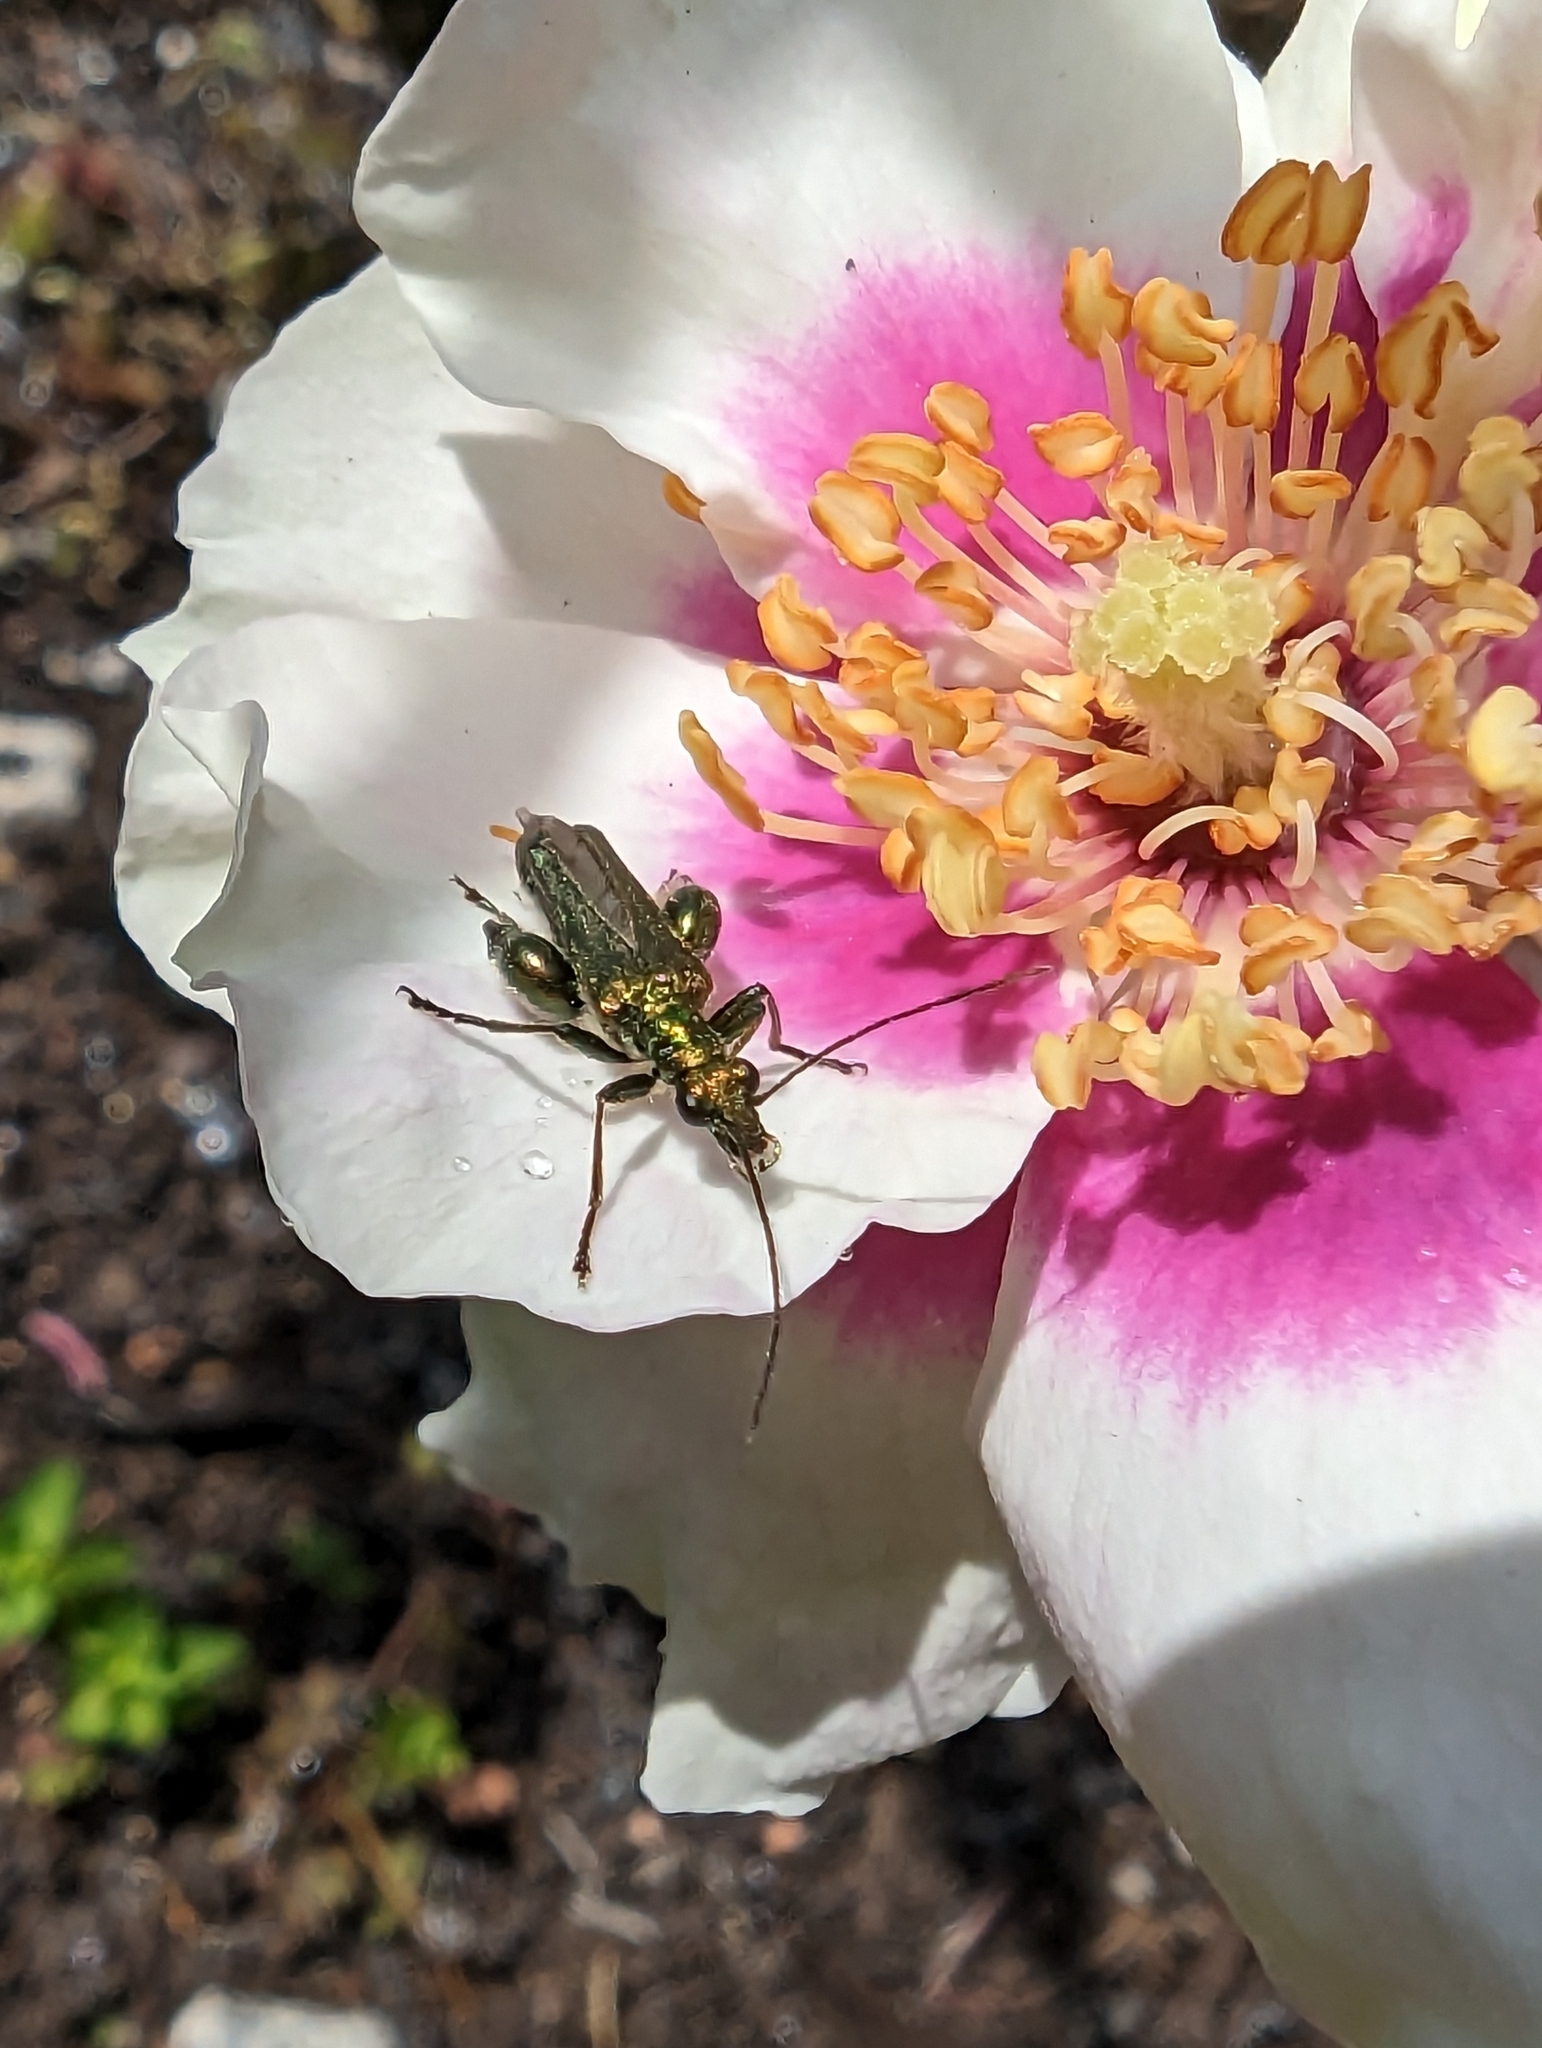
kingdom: Animalia
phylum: Arthropoda
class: Insecta
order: Coleoptera
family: Oedemeridae
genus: Oedemera
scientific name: Oedemera nobilis
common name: Swollen-thighed beetle
